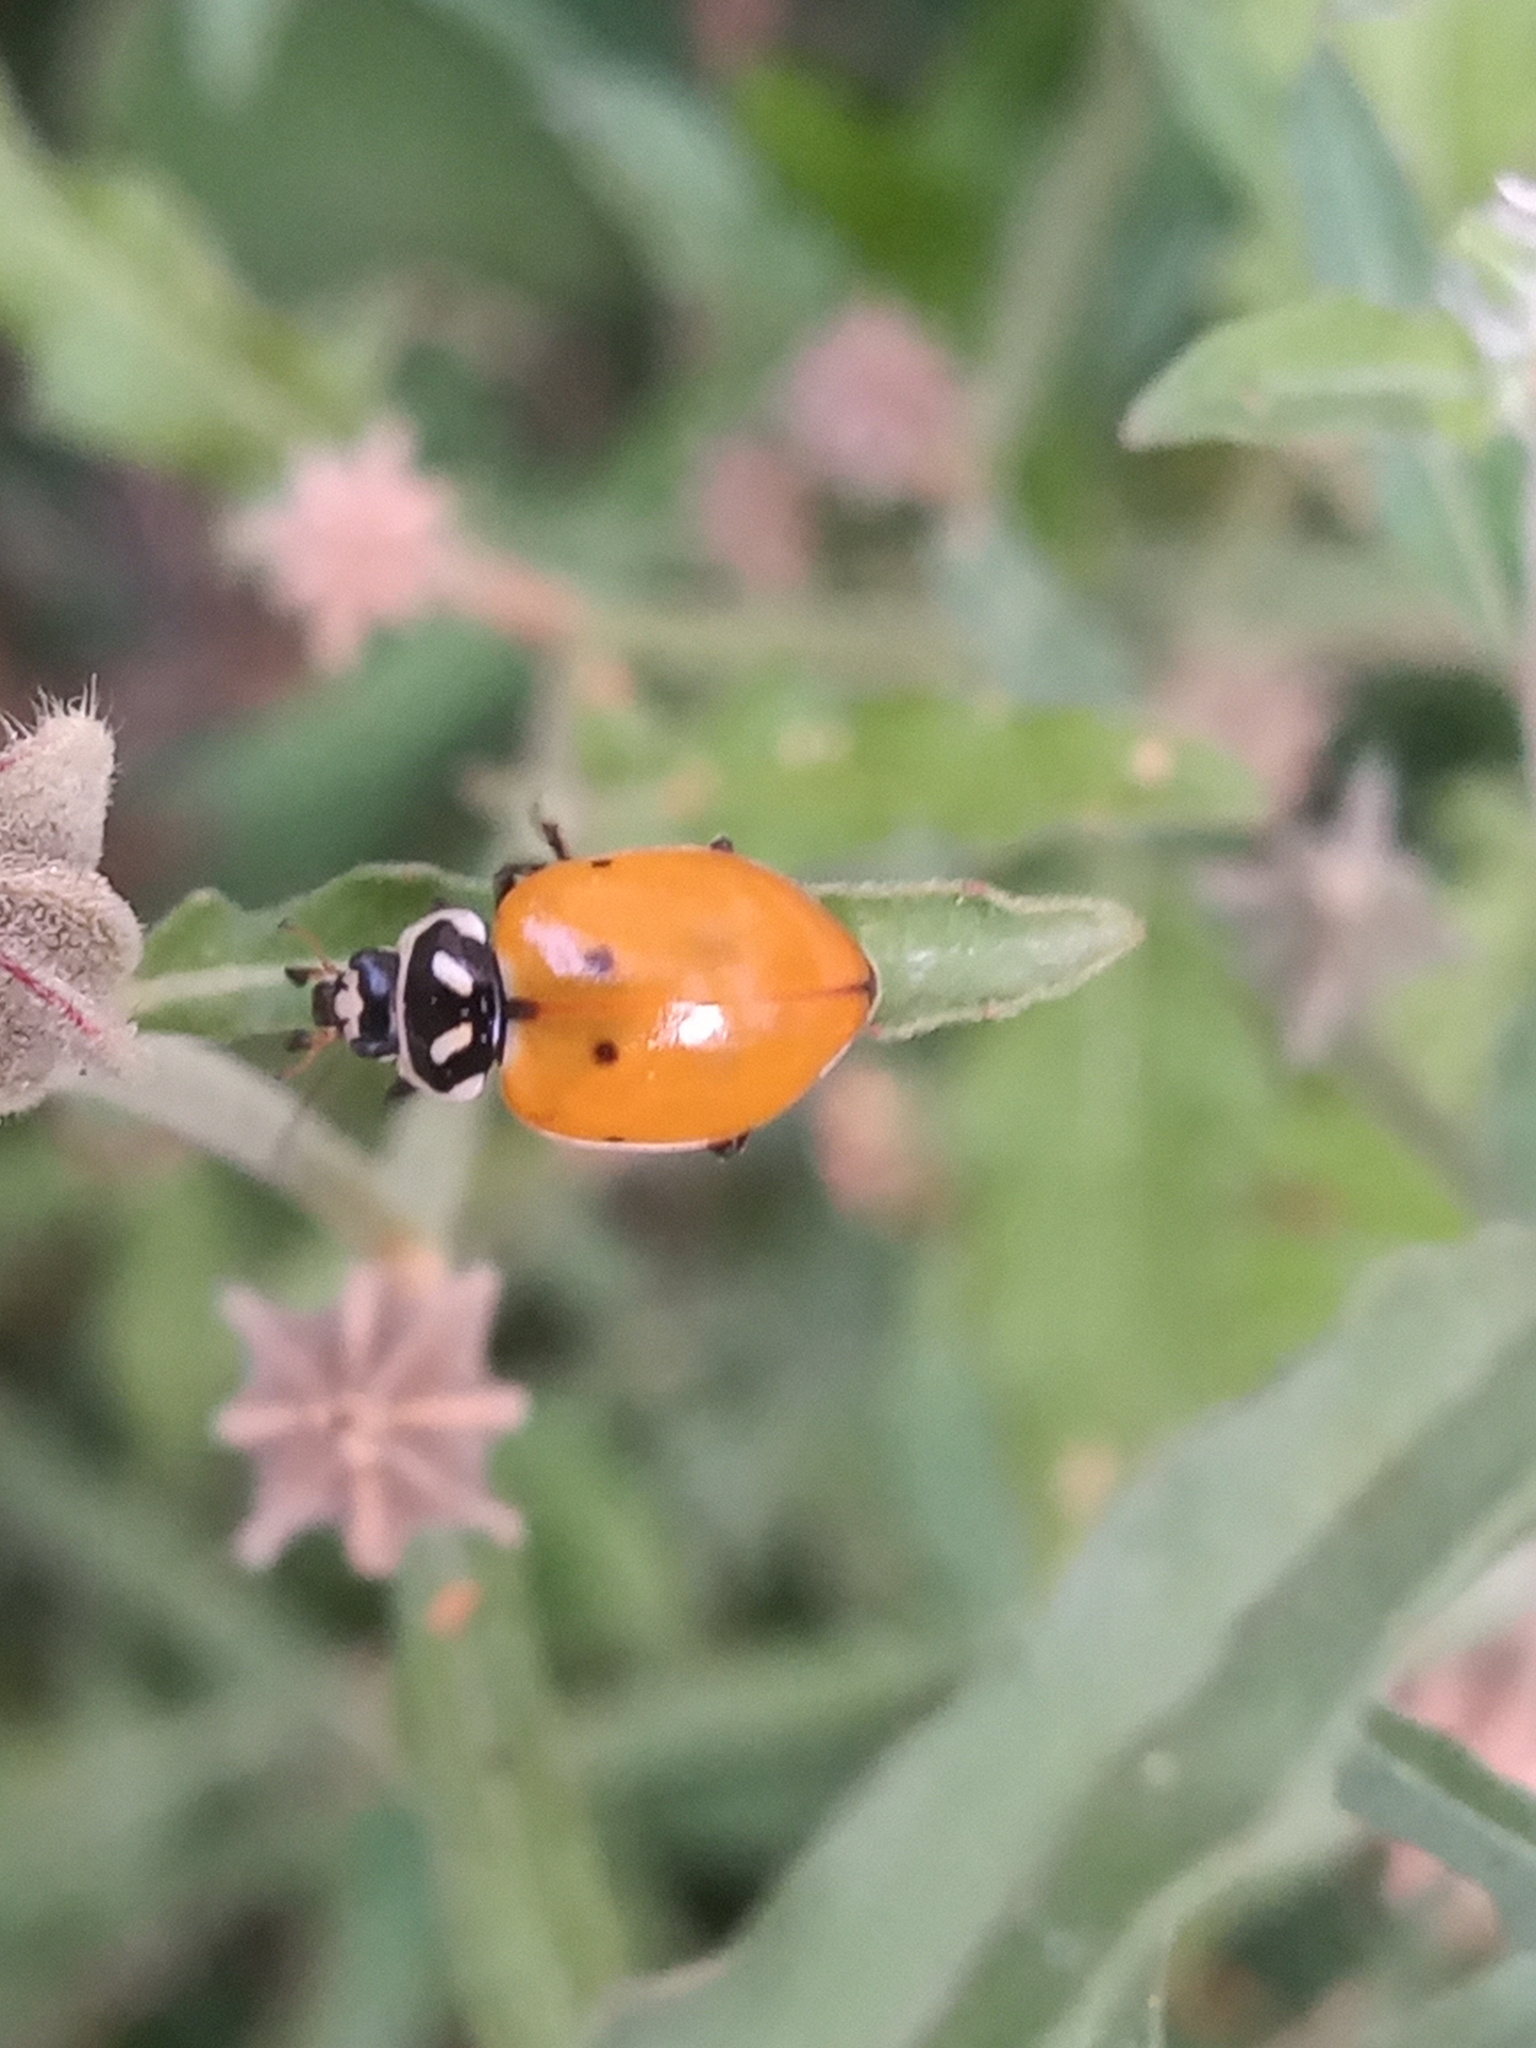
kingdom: Animalia
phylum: Arthropoda
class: Insecta
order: Coleoptera
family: Coccinellidae
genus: Hippodamia
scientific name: Hippodamia convergens
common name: Convergent lady beetle
